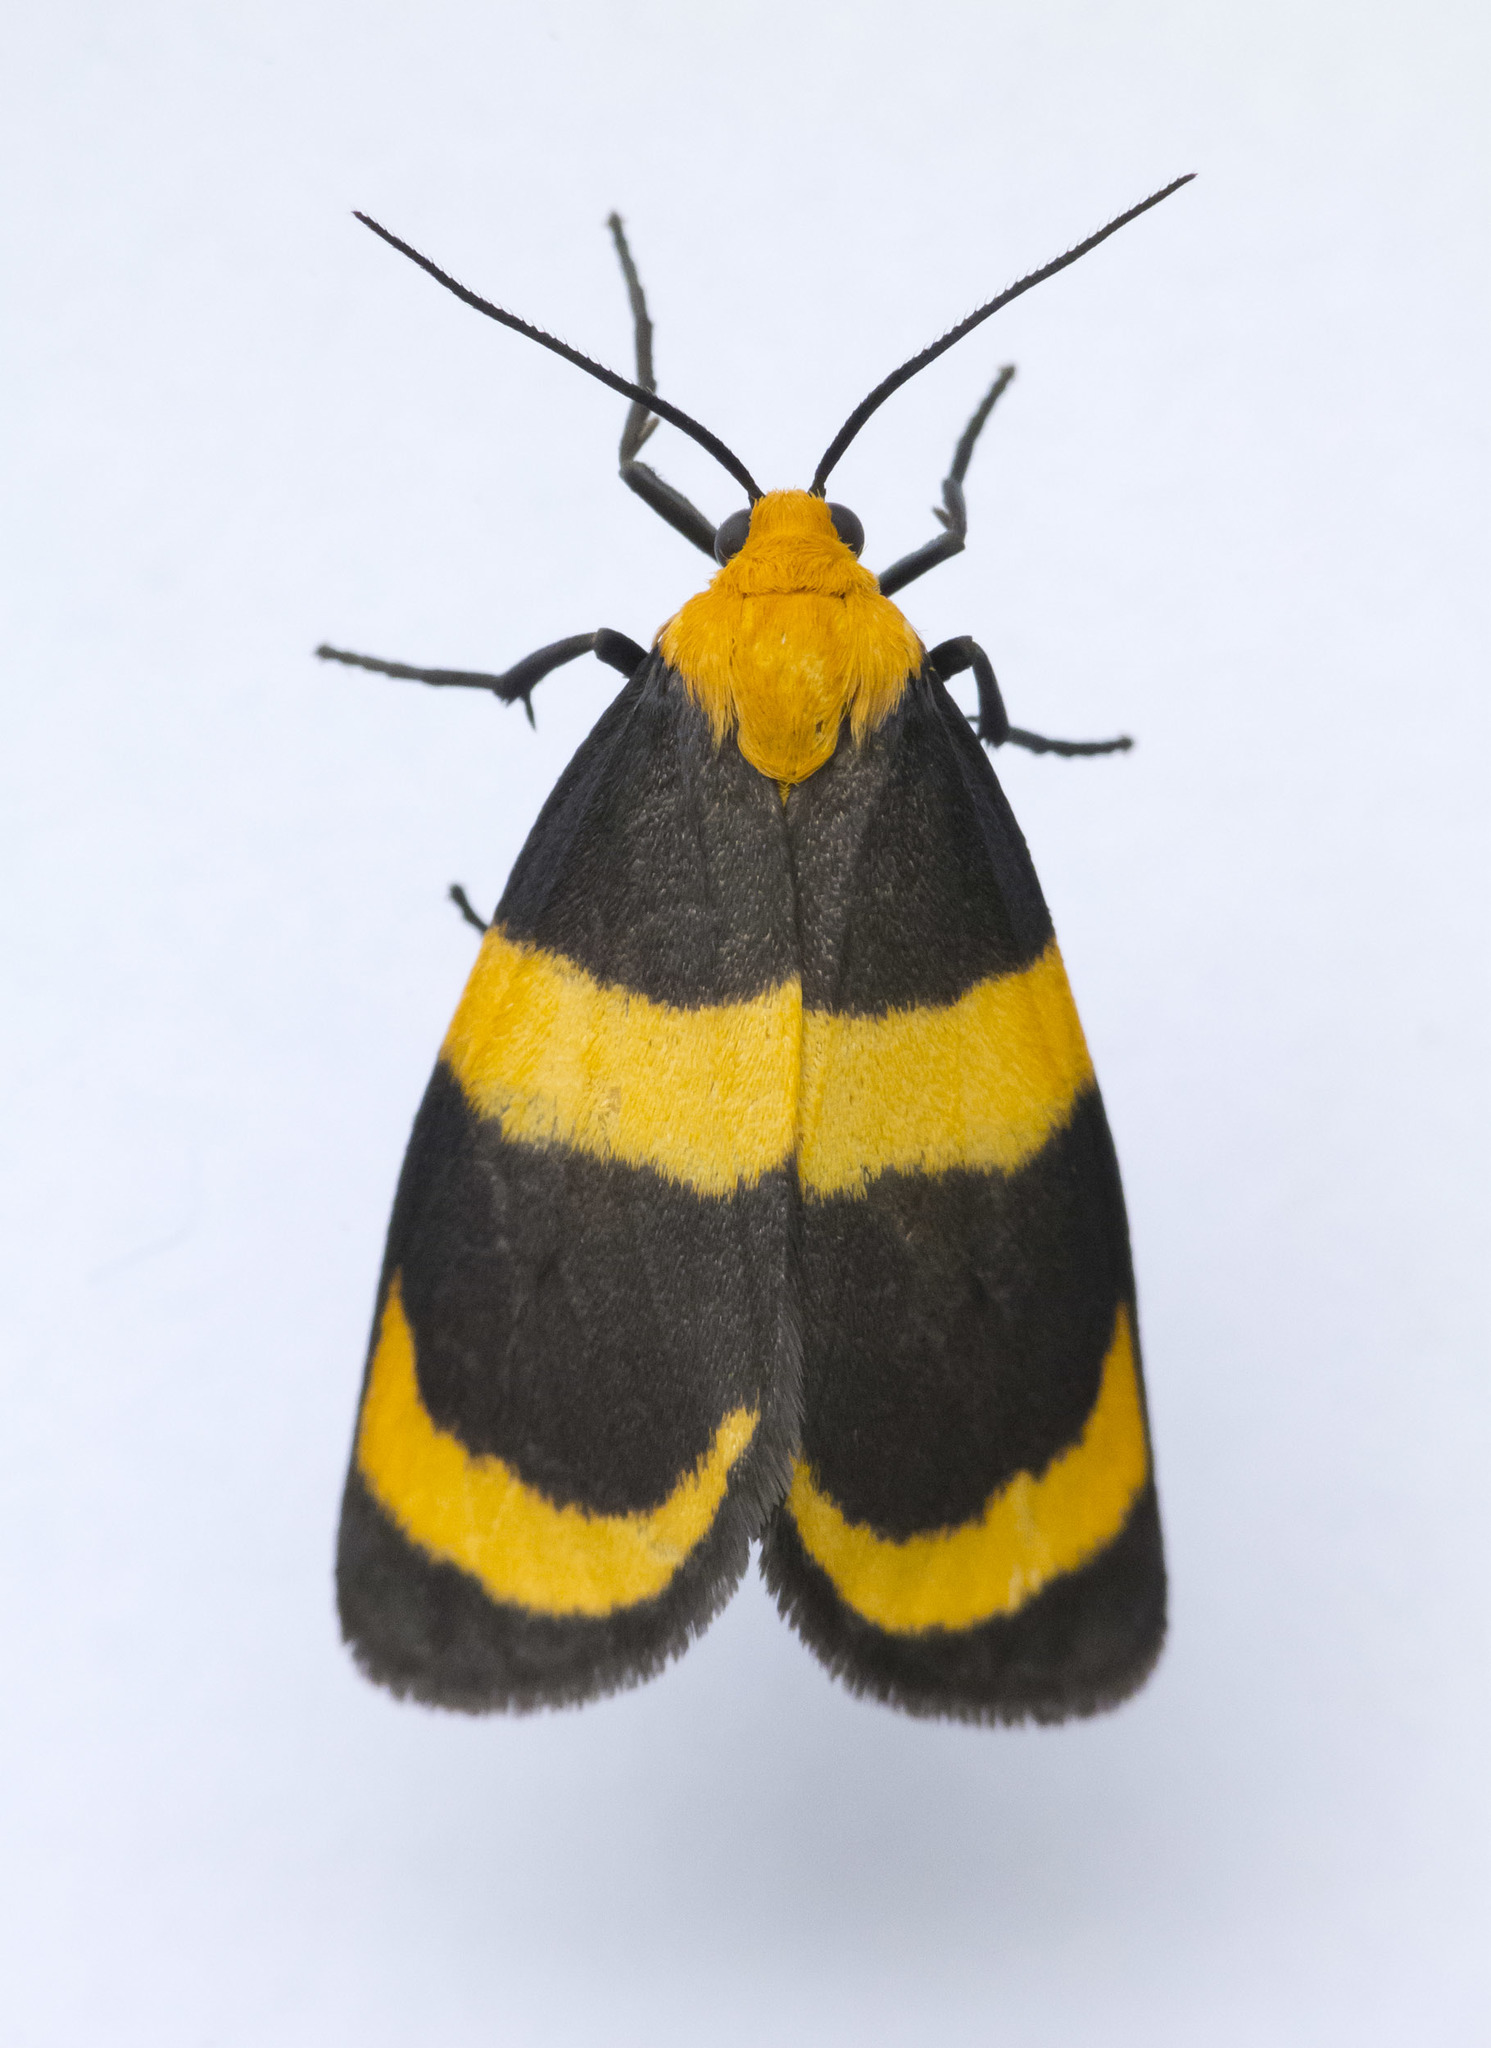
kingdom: Animalia
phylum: Arthropoda
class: Insecta
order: Lepidoptera
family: Erebidae
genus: Eudesmia
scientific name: Eudesmia menea
